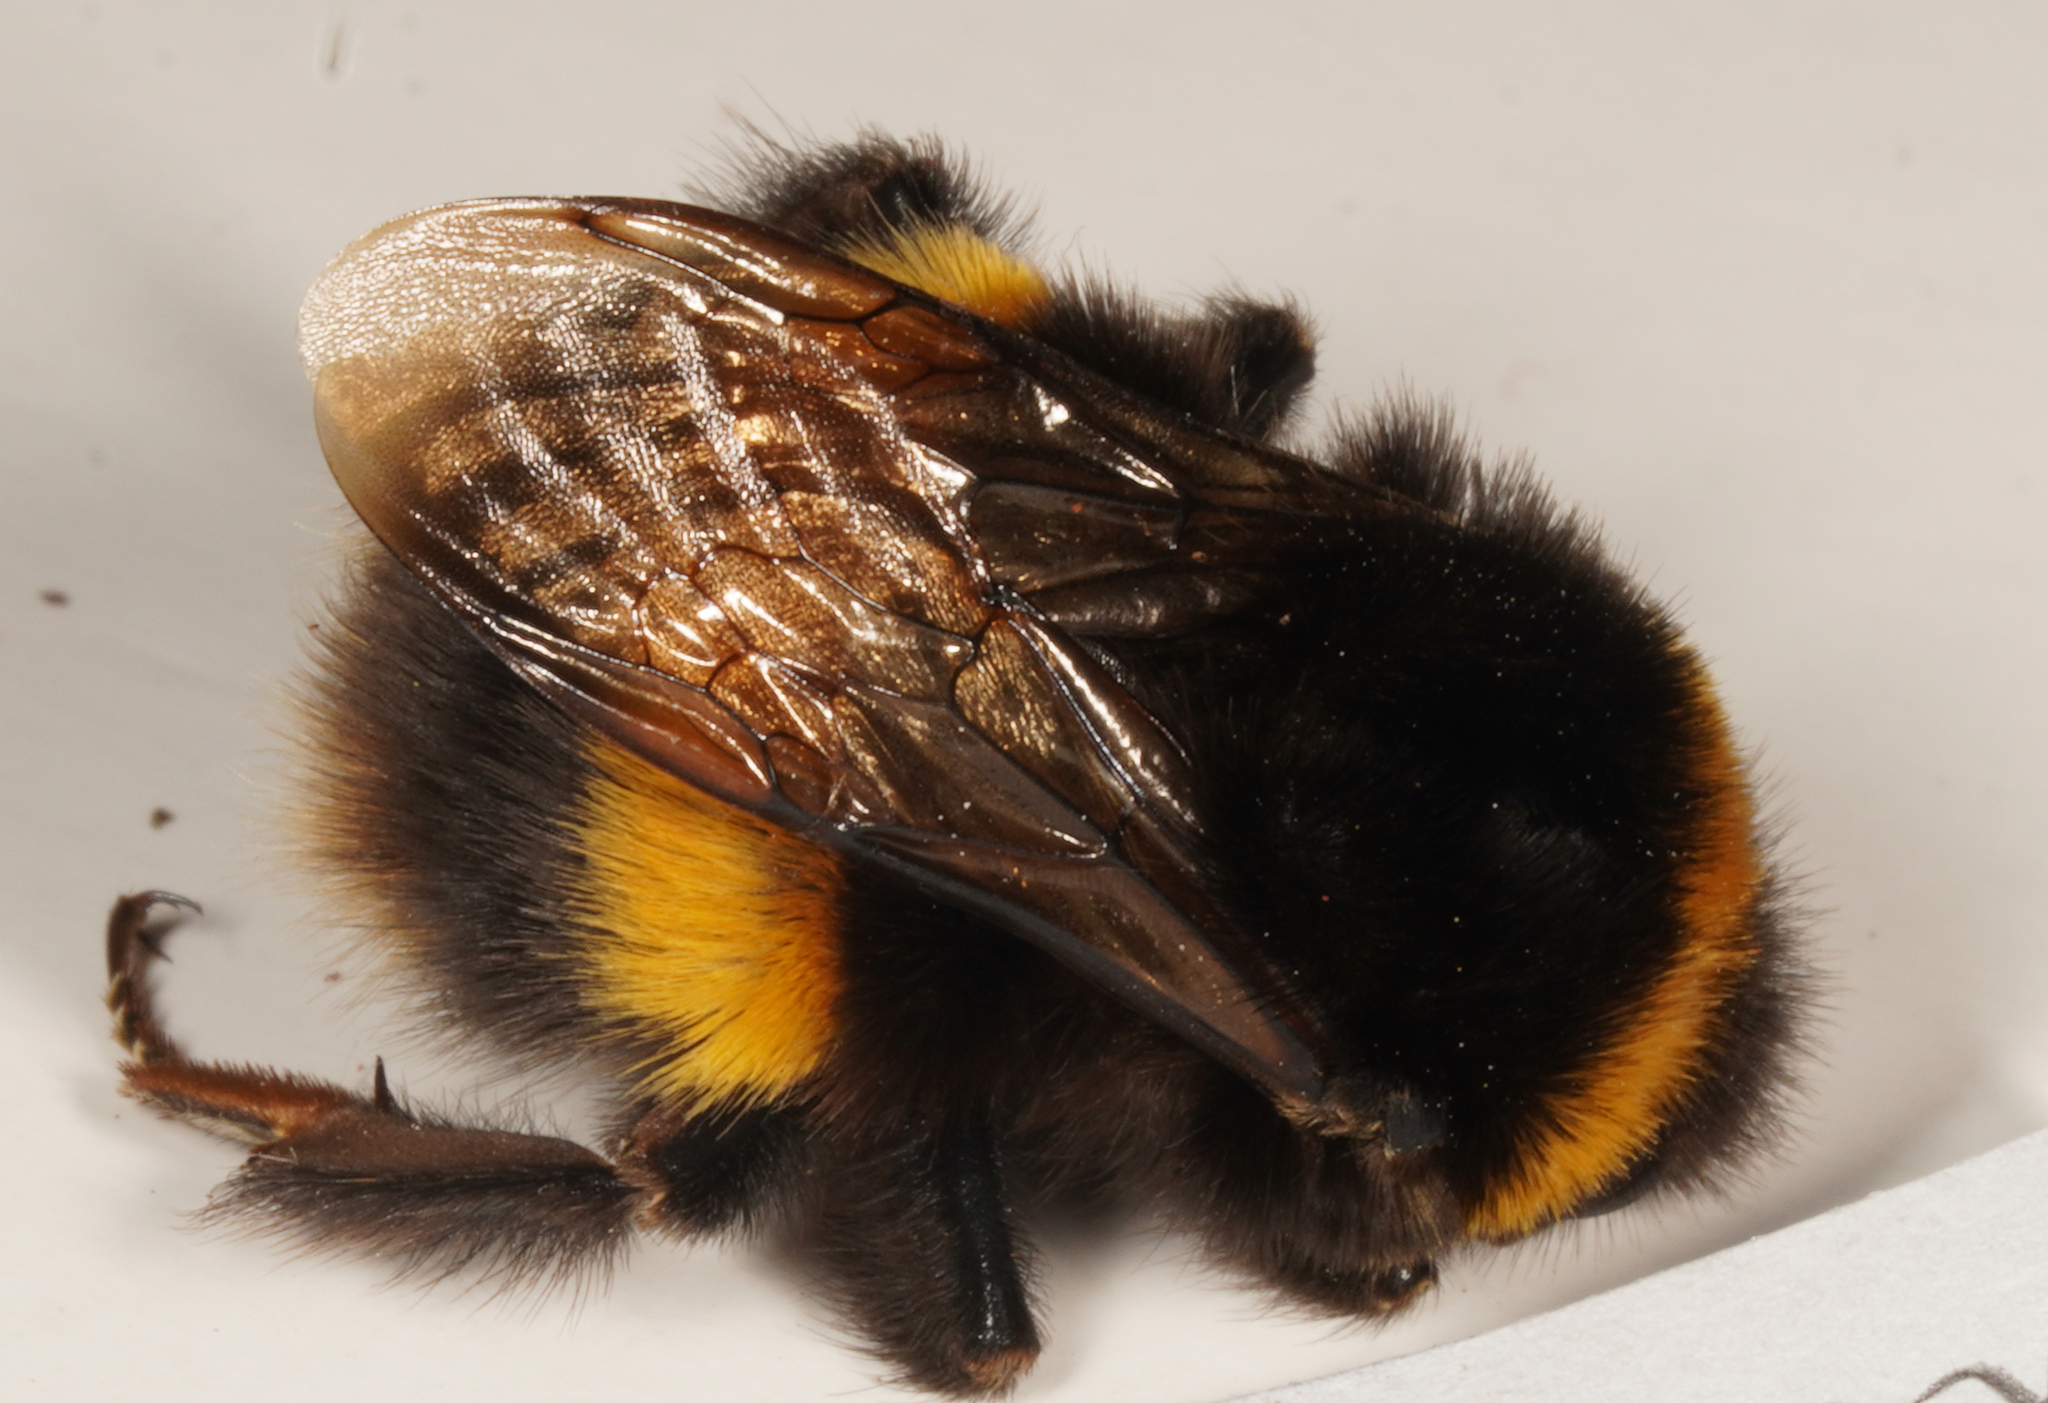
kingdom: Animalia
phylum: Arthropoda
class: Insecta
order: Hymenoptera
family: Apidae
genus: Bombus
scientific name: Bombus terrestris
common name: Buff-tailed bumblebee
